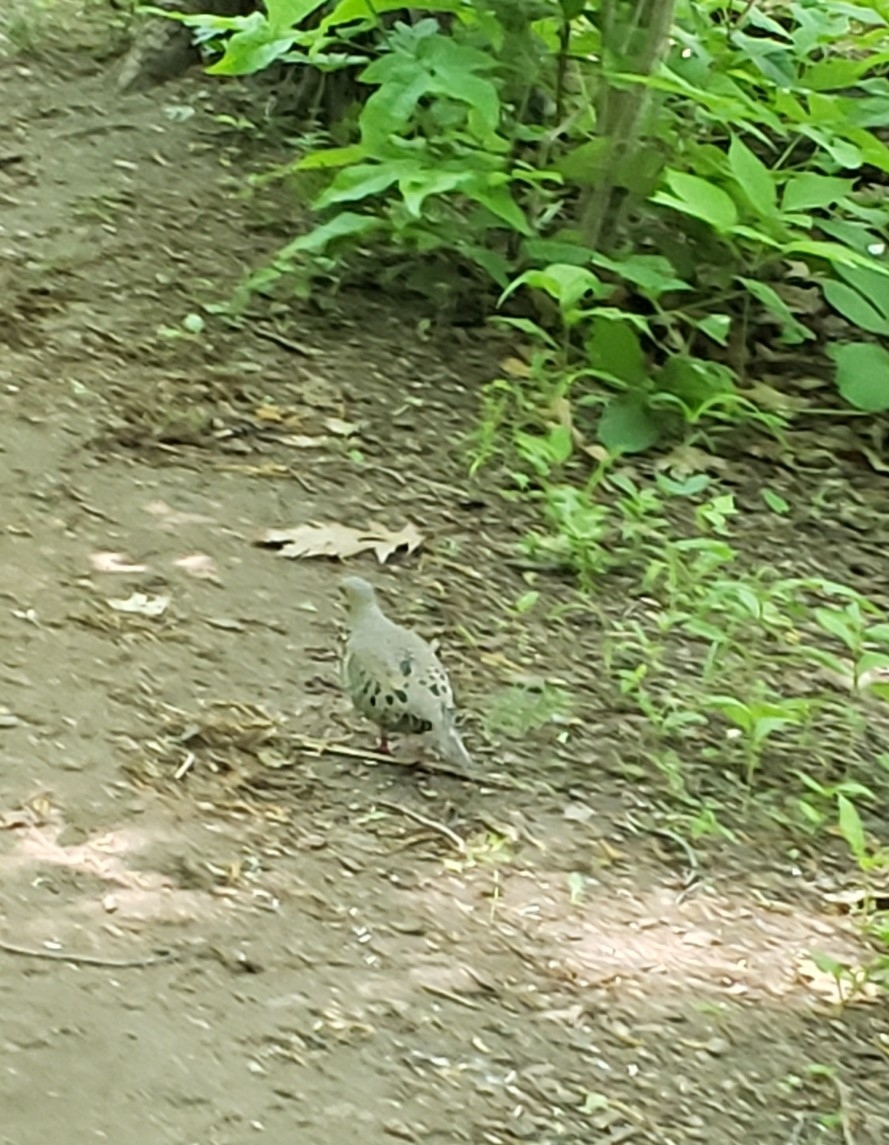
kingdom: Animalia
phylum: Chordata
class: Aves
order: Columbiformes
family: Columbidae
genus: Zenaida
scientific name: Zenaida macroura
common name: Mourning dove
